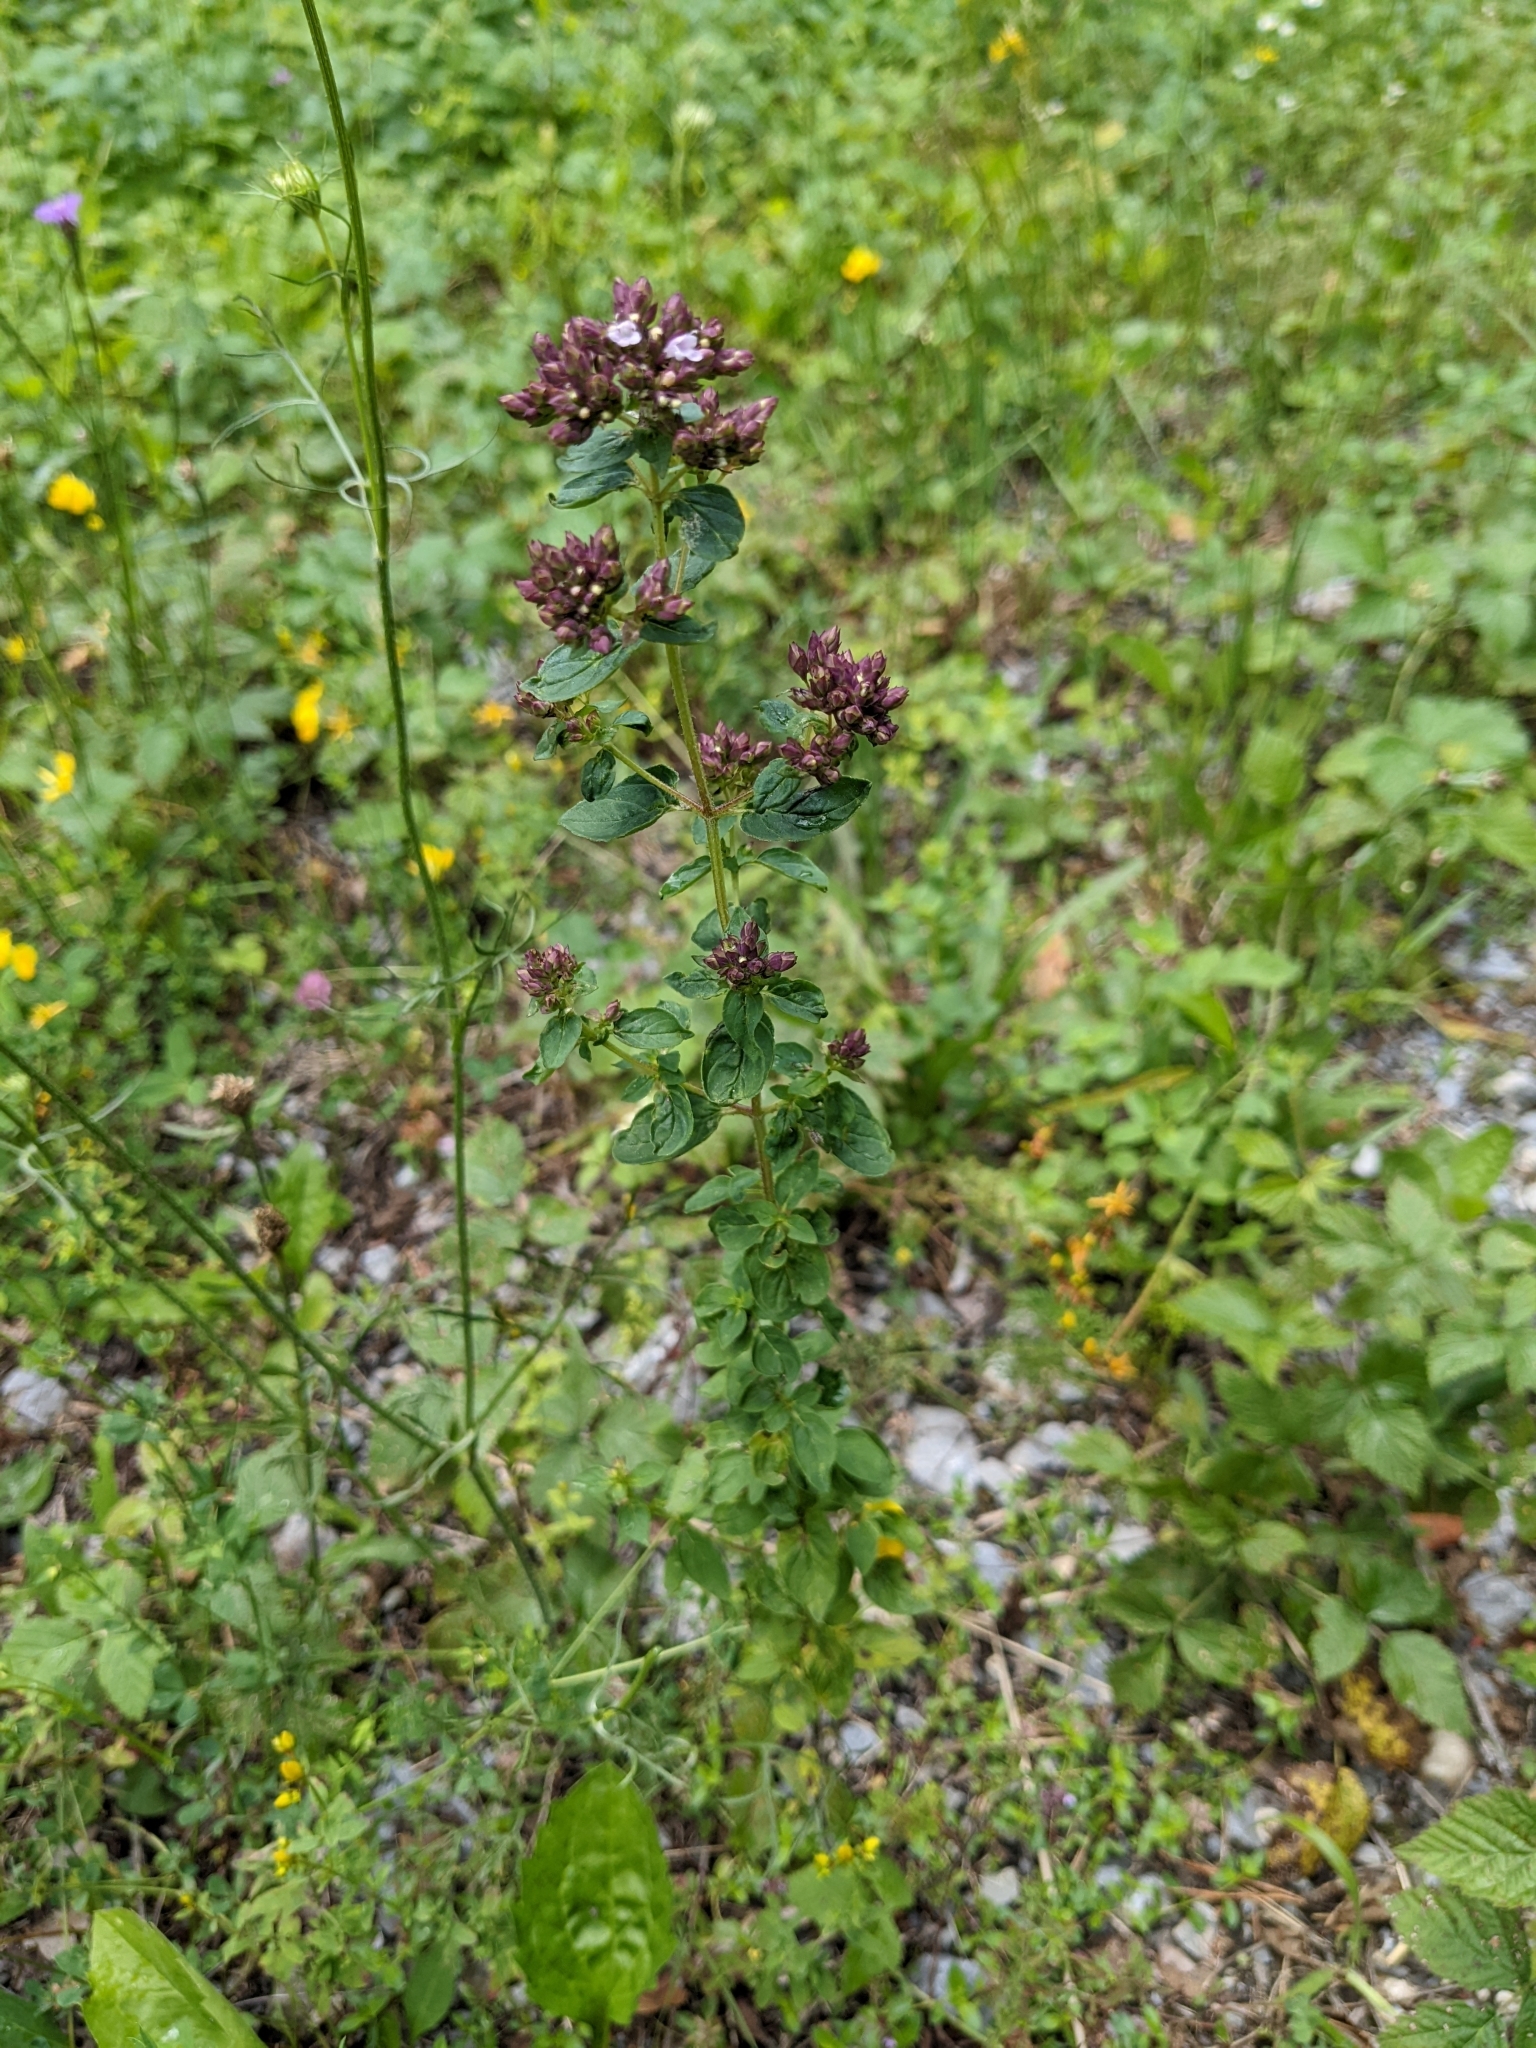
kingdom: Plantae
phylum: Tracheophyta
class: Magnoliopsida
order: Lamiales
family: Lamiaceae
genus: Origanum
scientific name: Origanum vulgare
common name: Wild marjoram
